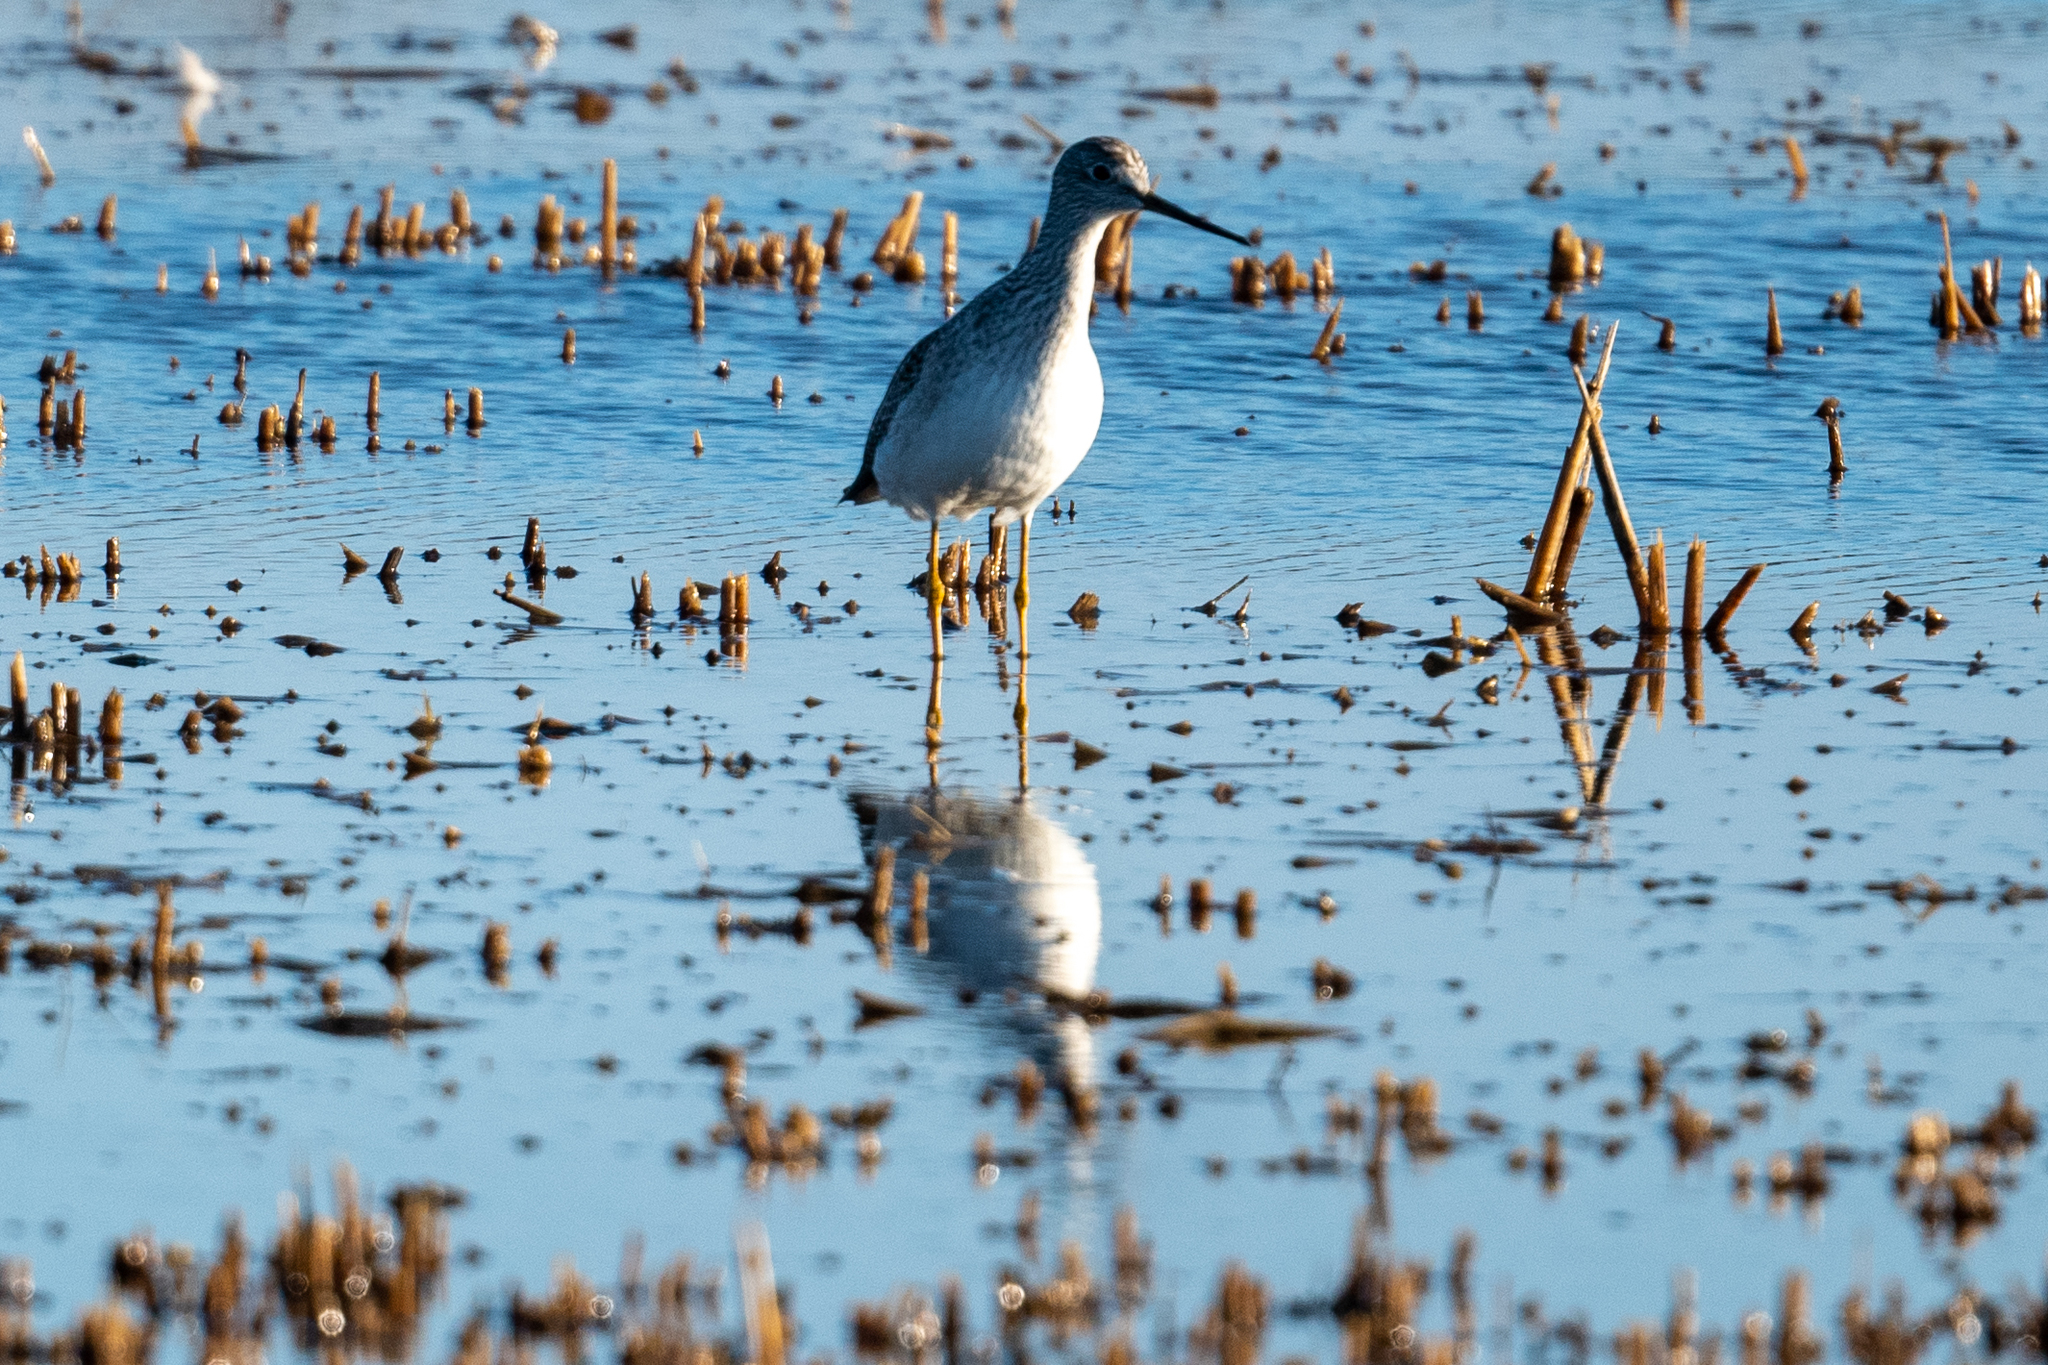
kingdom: Animalia
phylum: Chordata
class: Aves
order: Charadriiformes
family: Scolopacidae
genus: Tringa
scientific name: Tringa melanoleuca
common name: Greater yellowlegs
